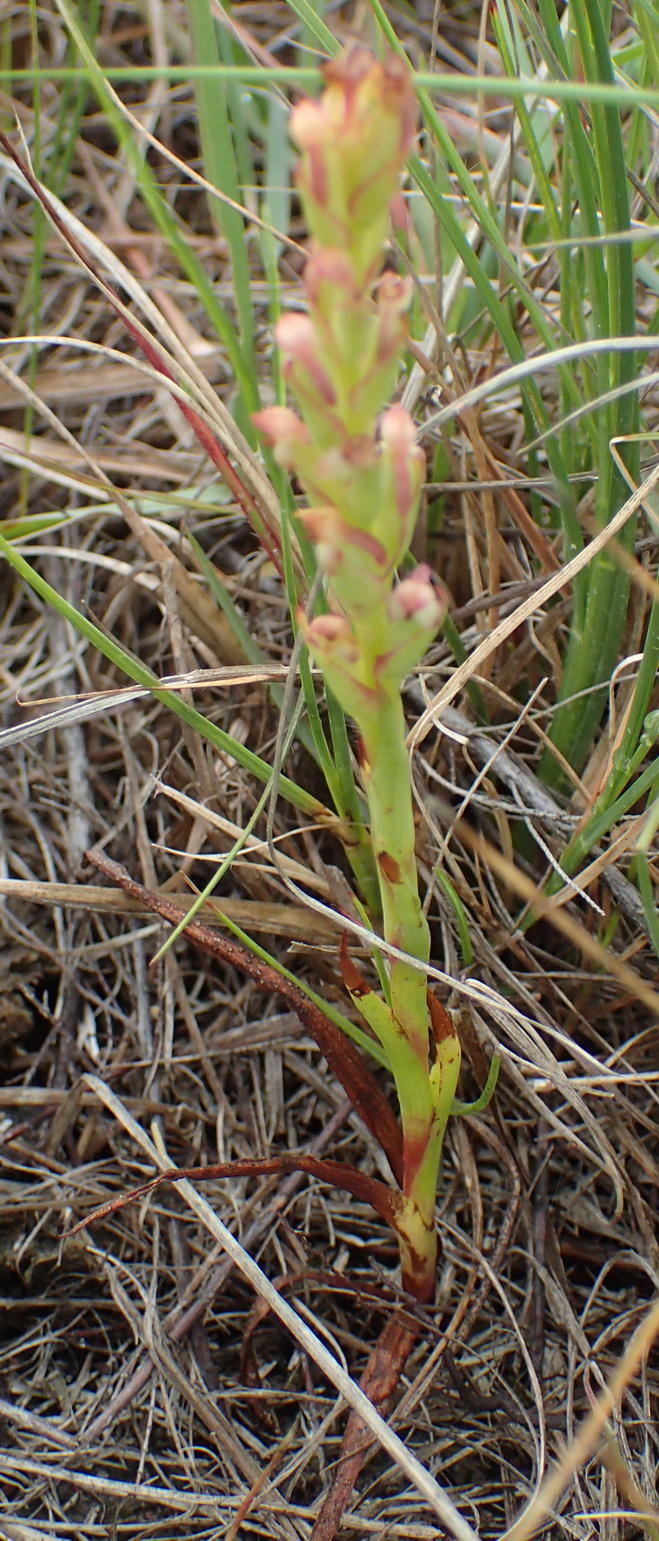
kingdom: Plantae
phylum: Tracheophyta
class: Liliopsida
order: Asparagales
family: Orchidaceae
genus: Disa
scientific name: Disa bracteata
